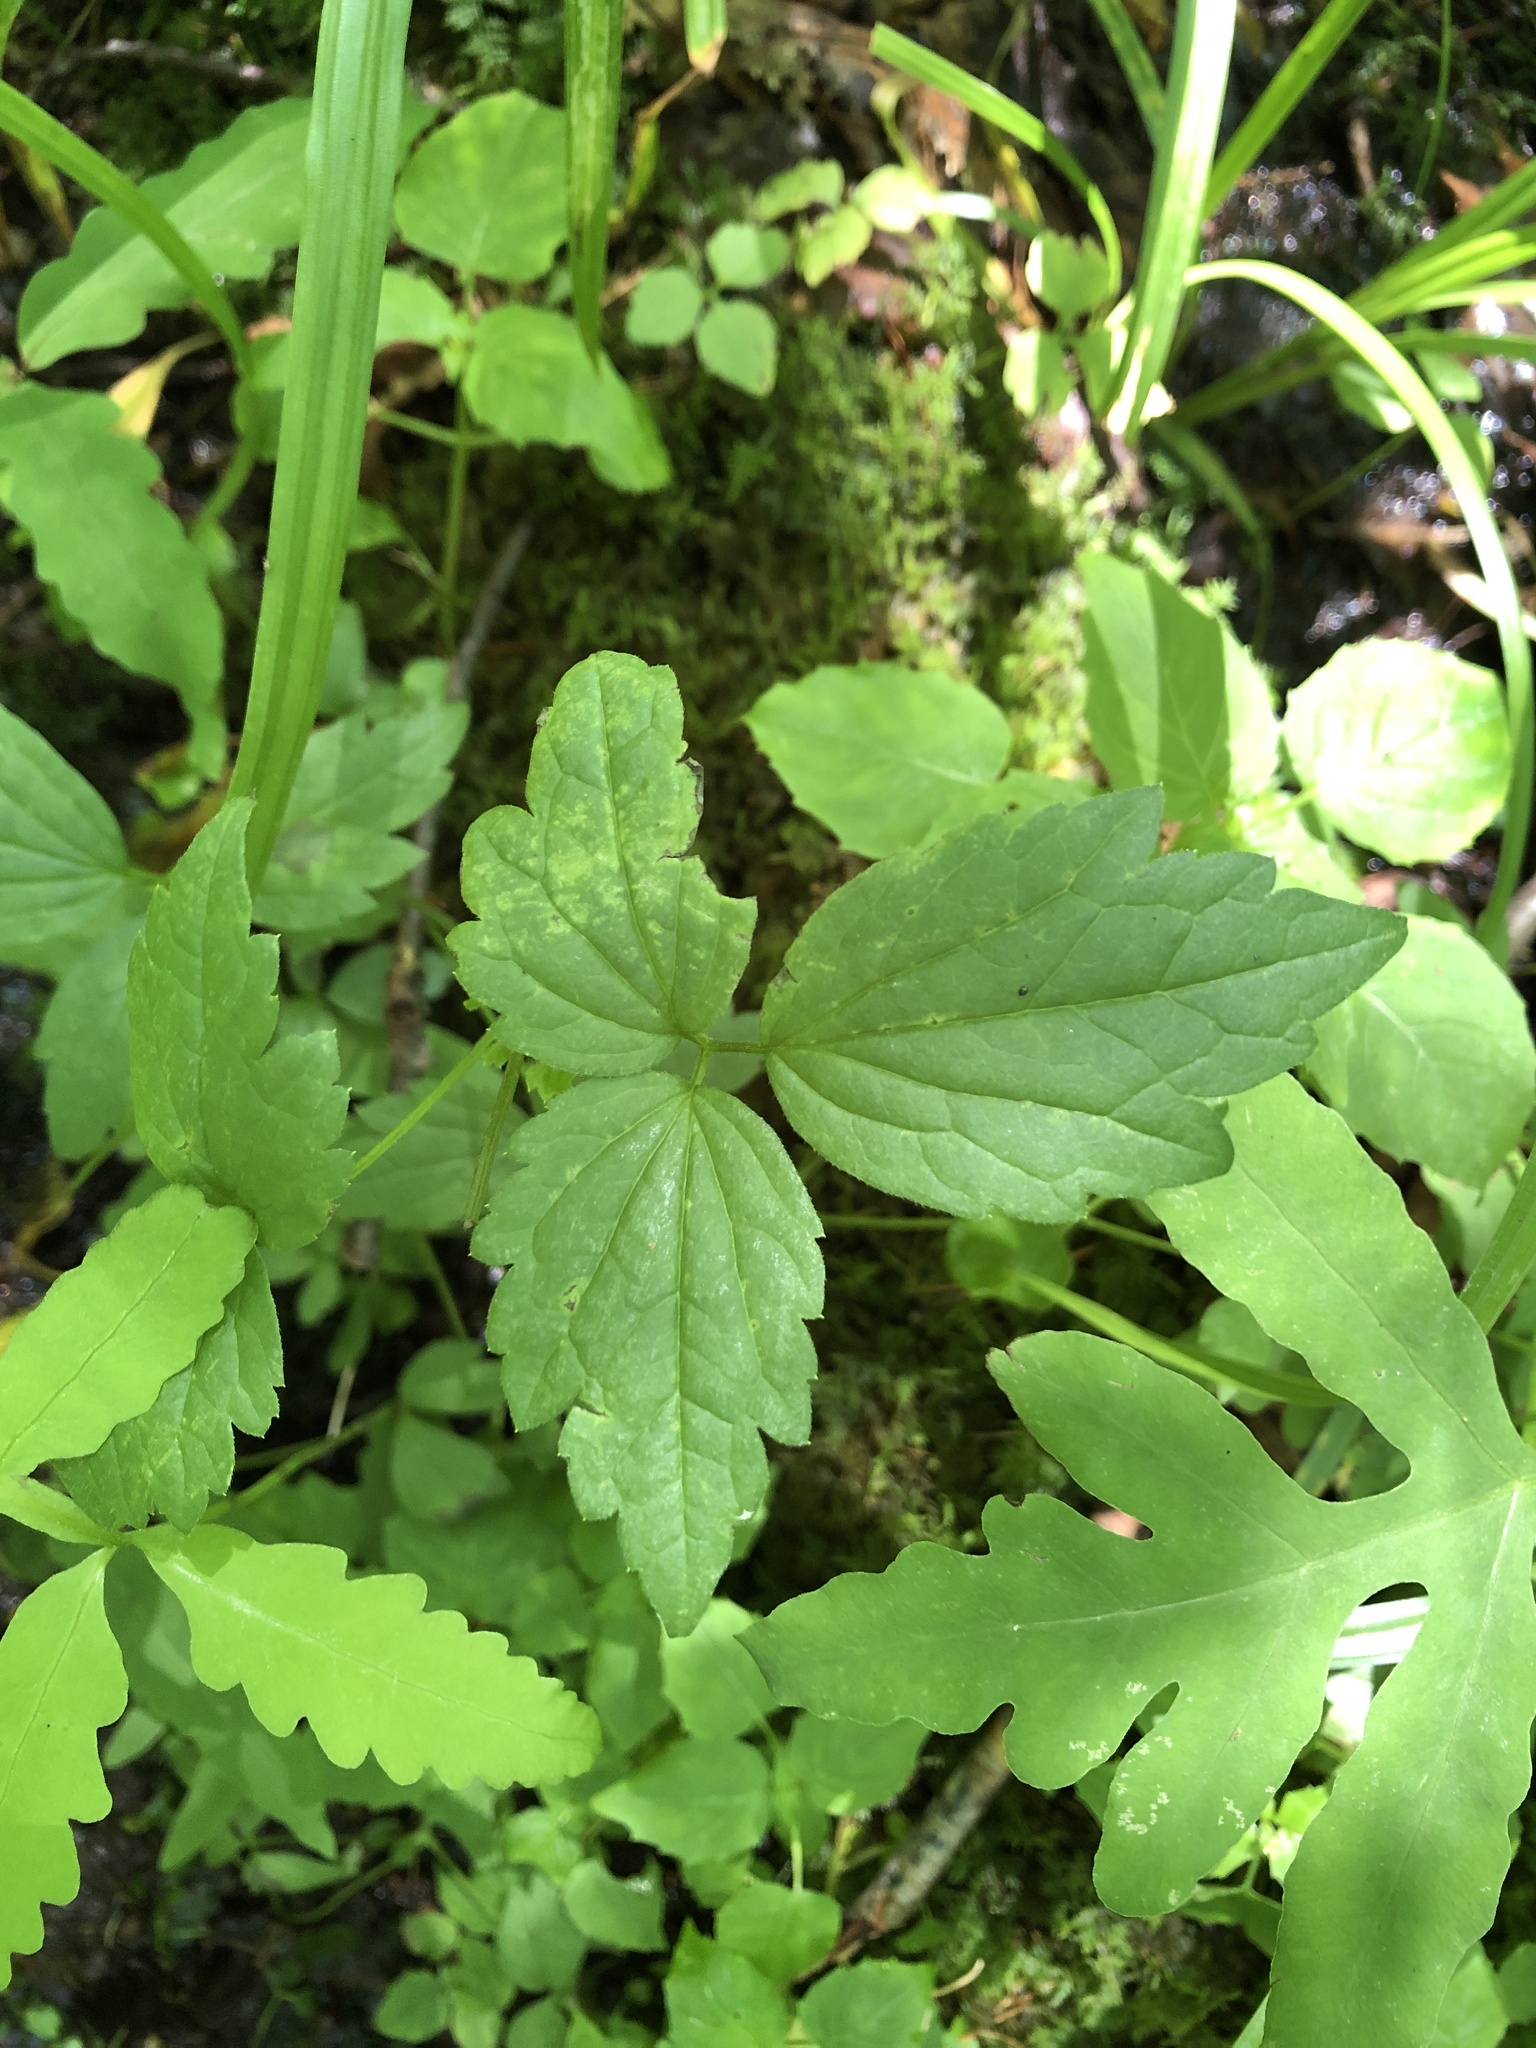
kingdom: Plantae
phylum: Tracheophyta
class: Magnoliopsida
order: Ranunculales
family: Ranunculaceae
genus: Clematis
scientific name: Clematis virginiana
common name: Virgin's-bower
